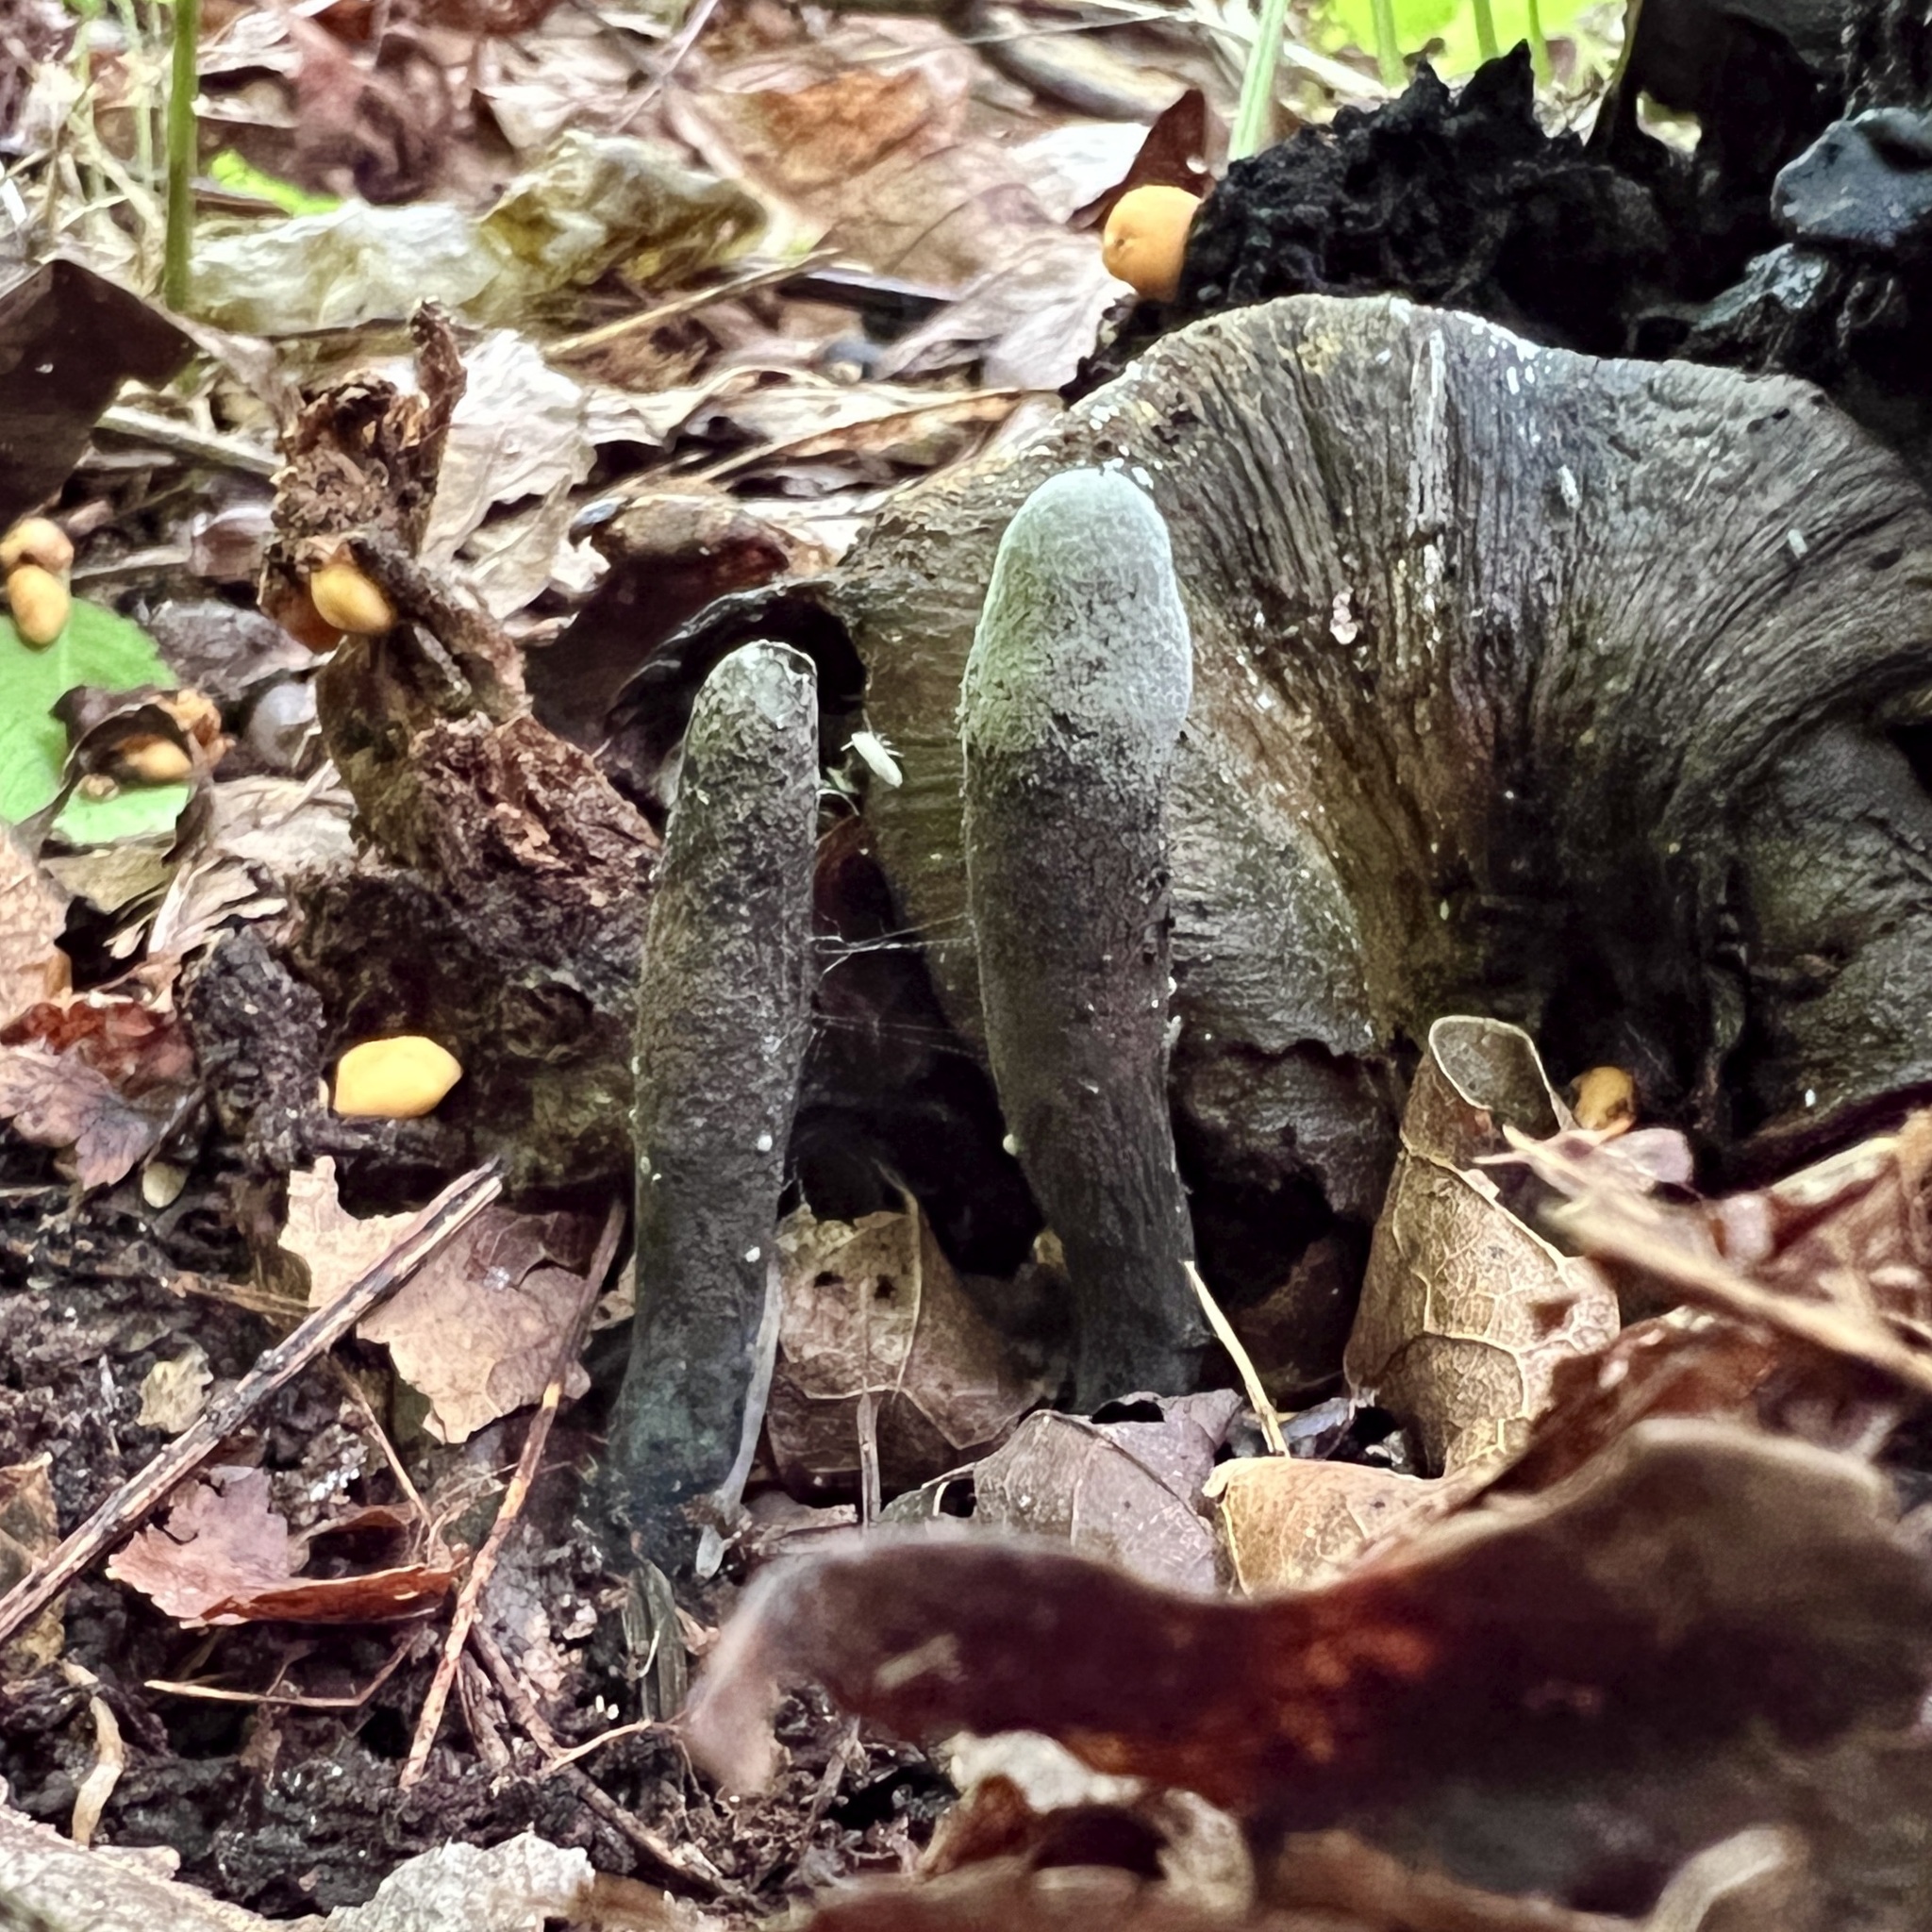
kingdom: Fungi
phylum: Ascomycota
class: Sordariomycetes
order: Xylariales
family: Xylariaceae
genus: Xylaria
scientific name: Xylaria polymorpha
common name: Dead man's fingers
